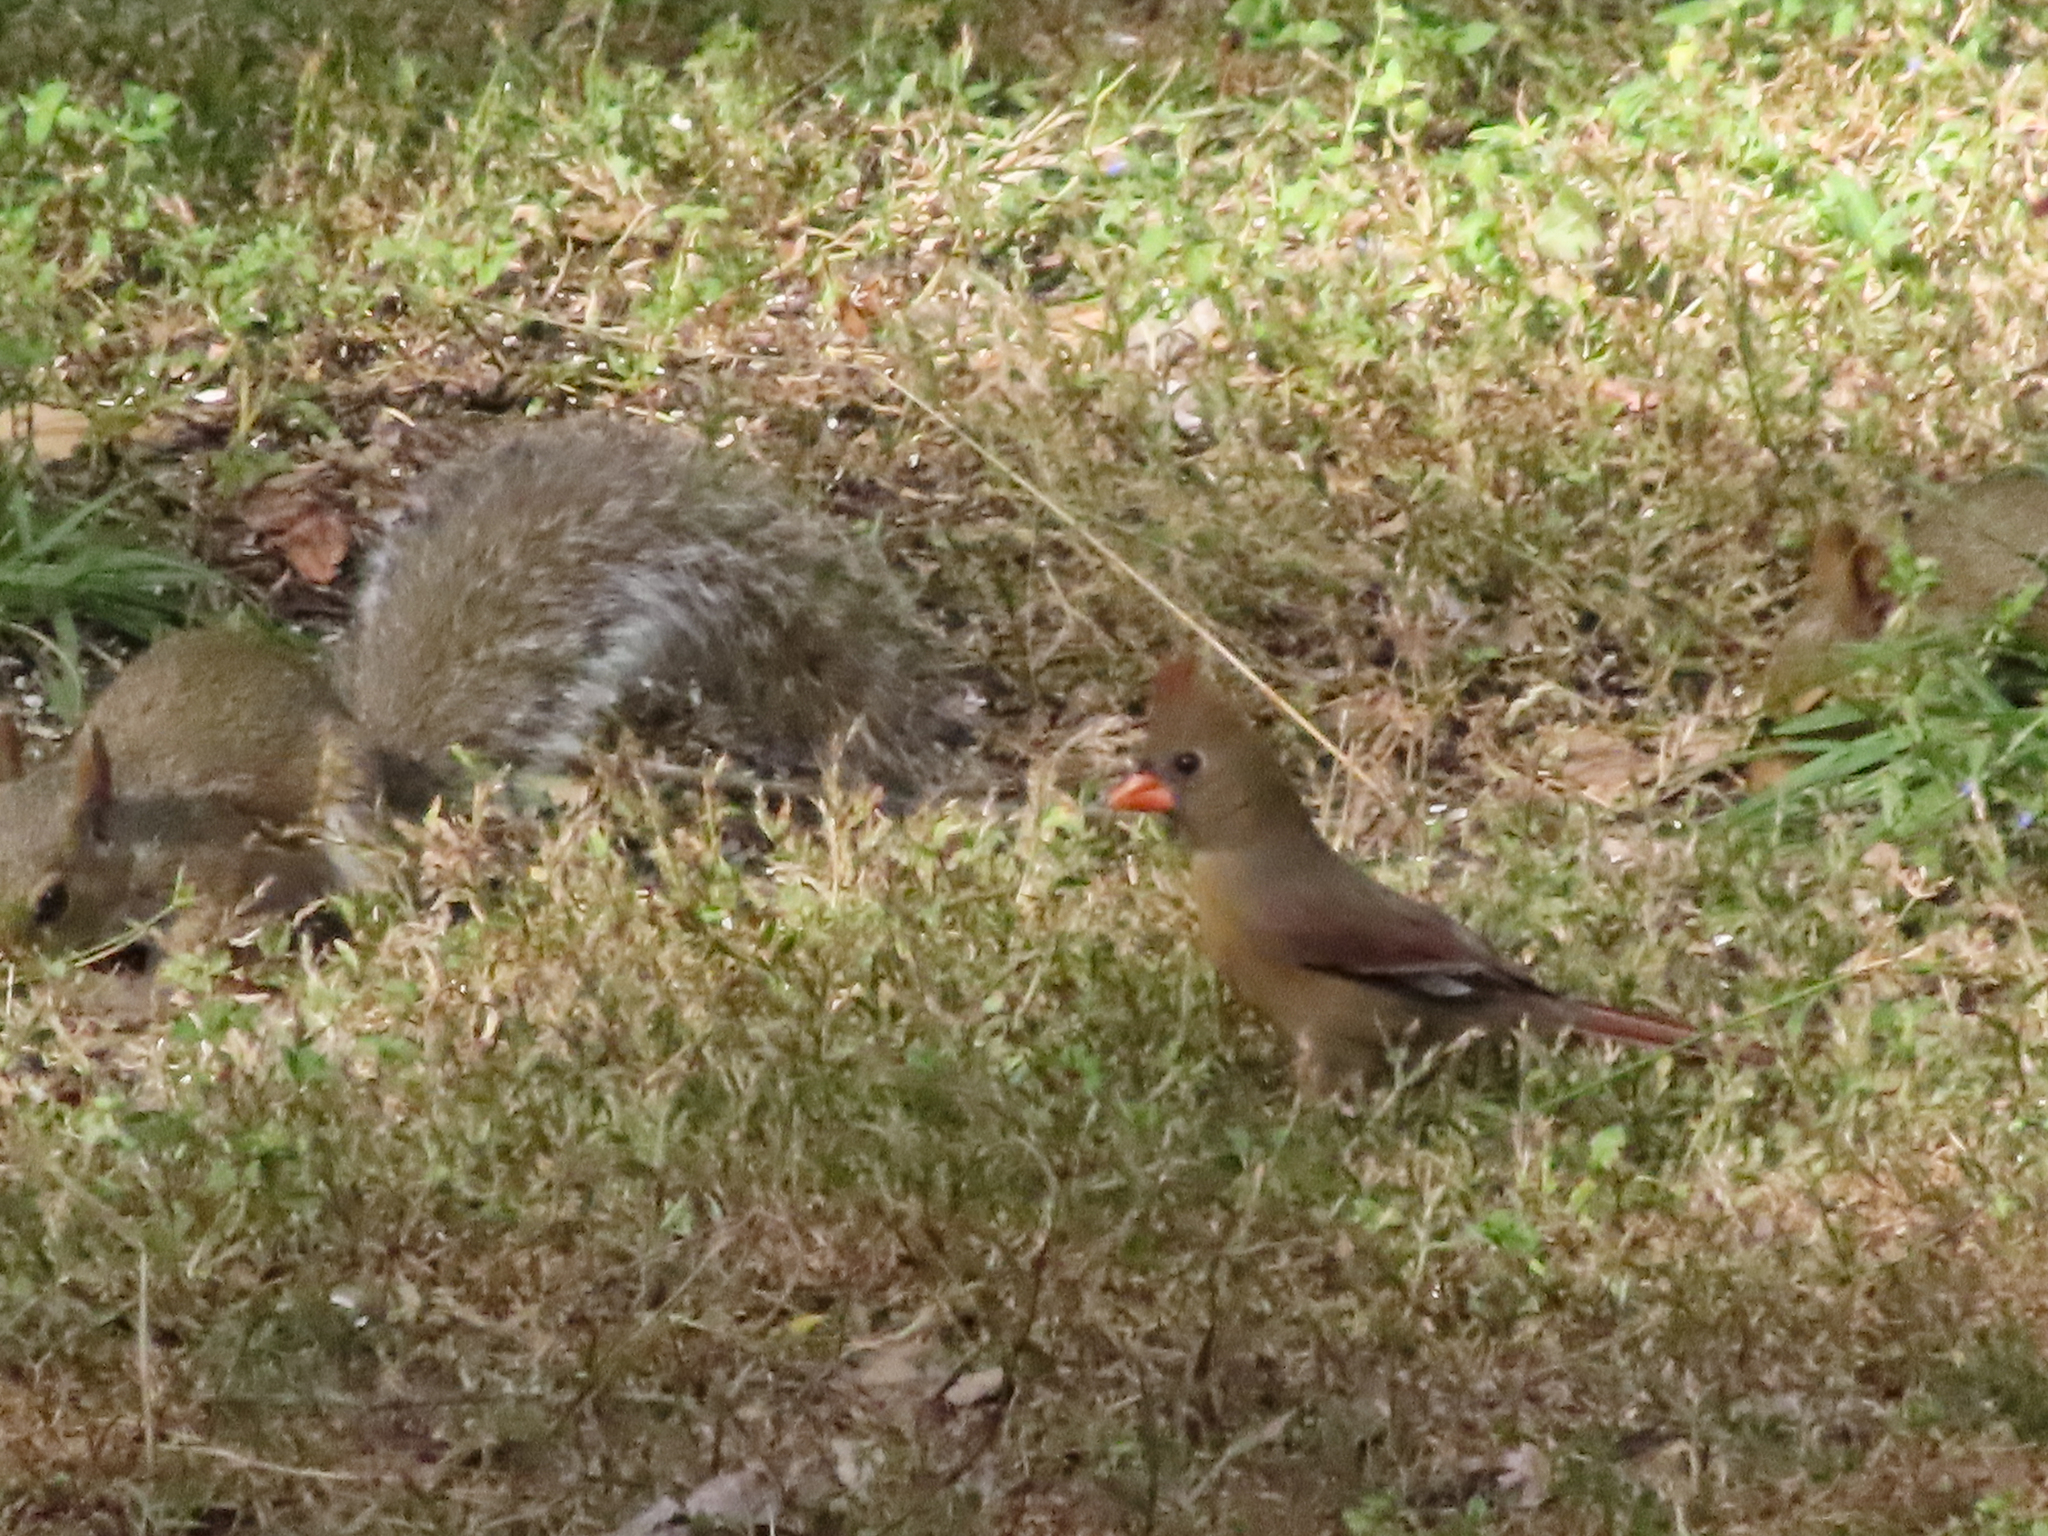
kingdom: Animalia
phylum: Chordata
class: Aves
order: Passeriformes
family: Cardinalidae
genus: Cardinalis
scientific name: Cardinalis cardinalis
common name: Northern cardinal
